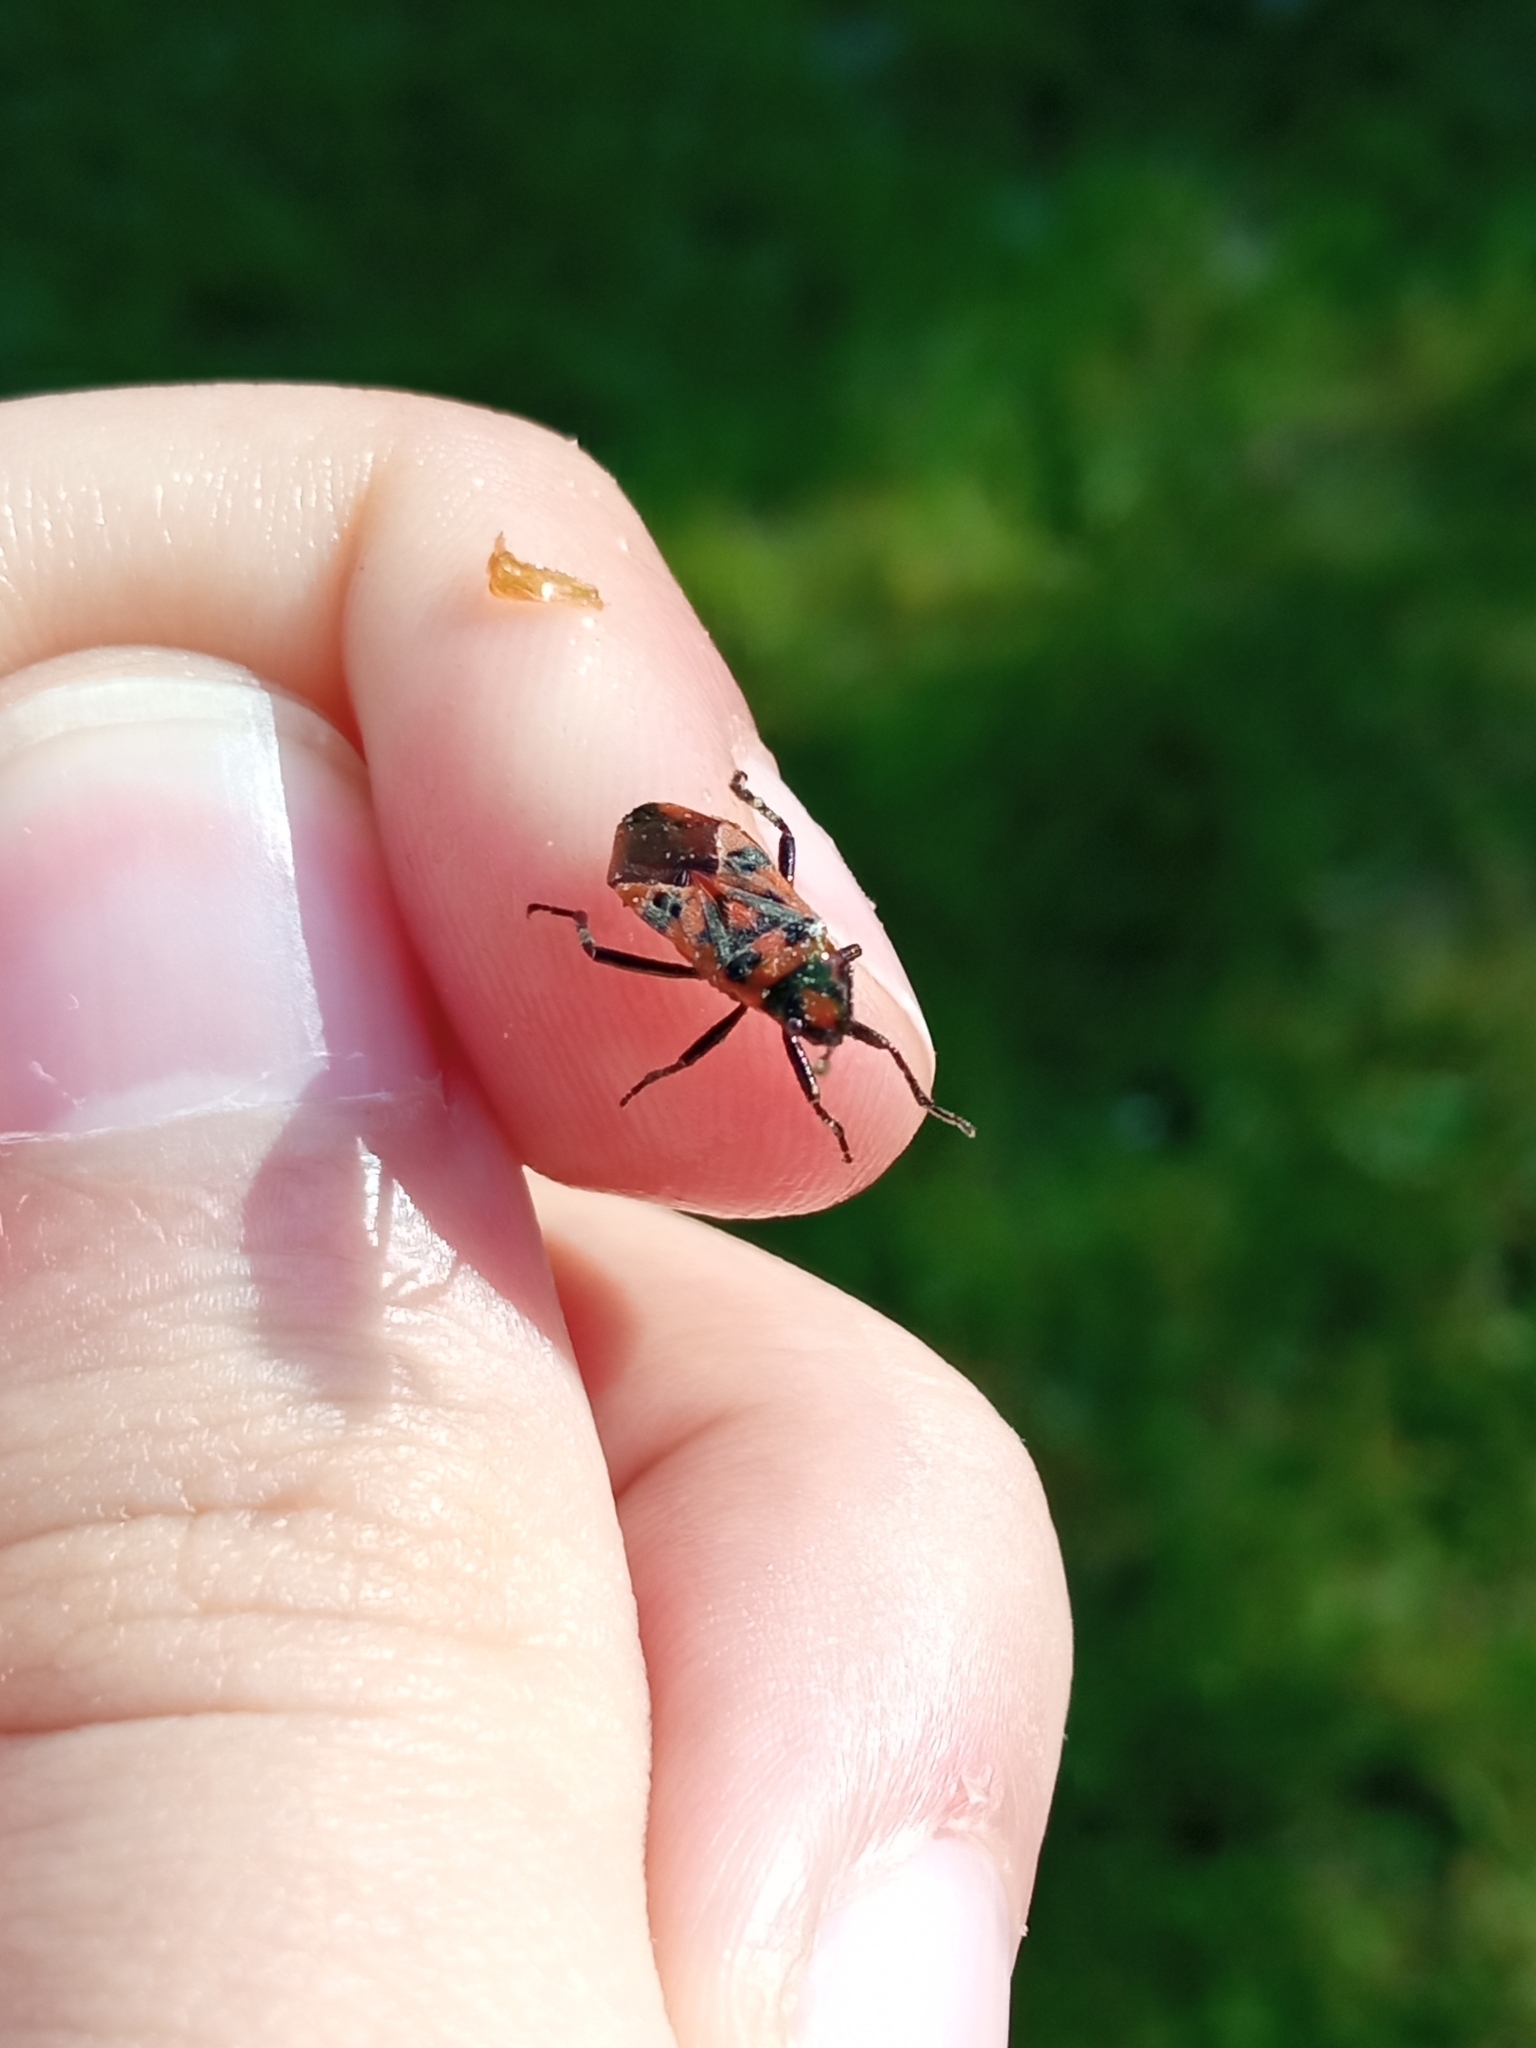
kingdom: Animalia
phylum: Arthropoda
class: Insecta
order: Hemiptera
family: Rhopalidae
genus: Corizus
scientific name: Corizus hyoscyami
